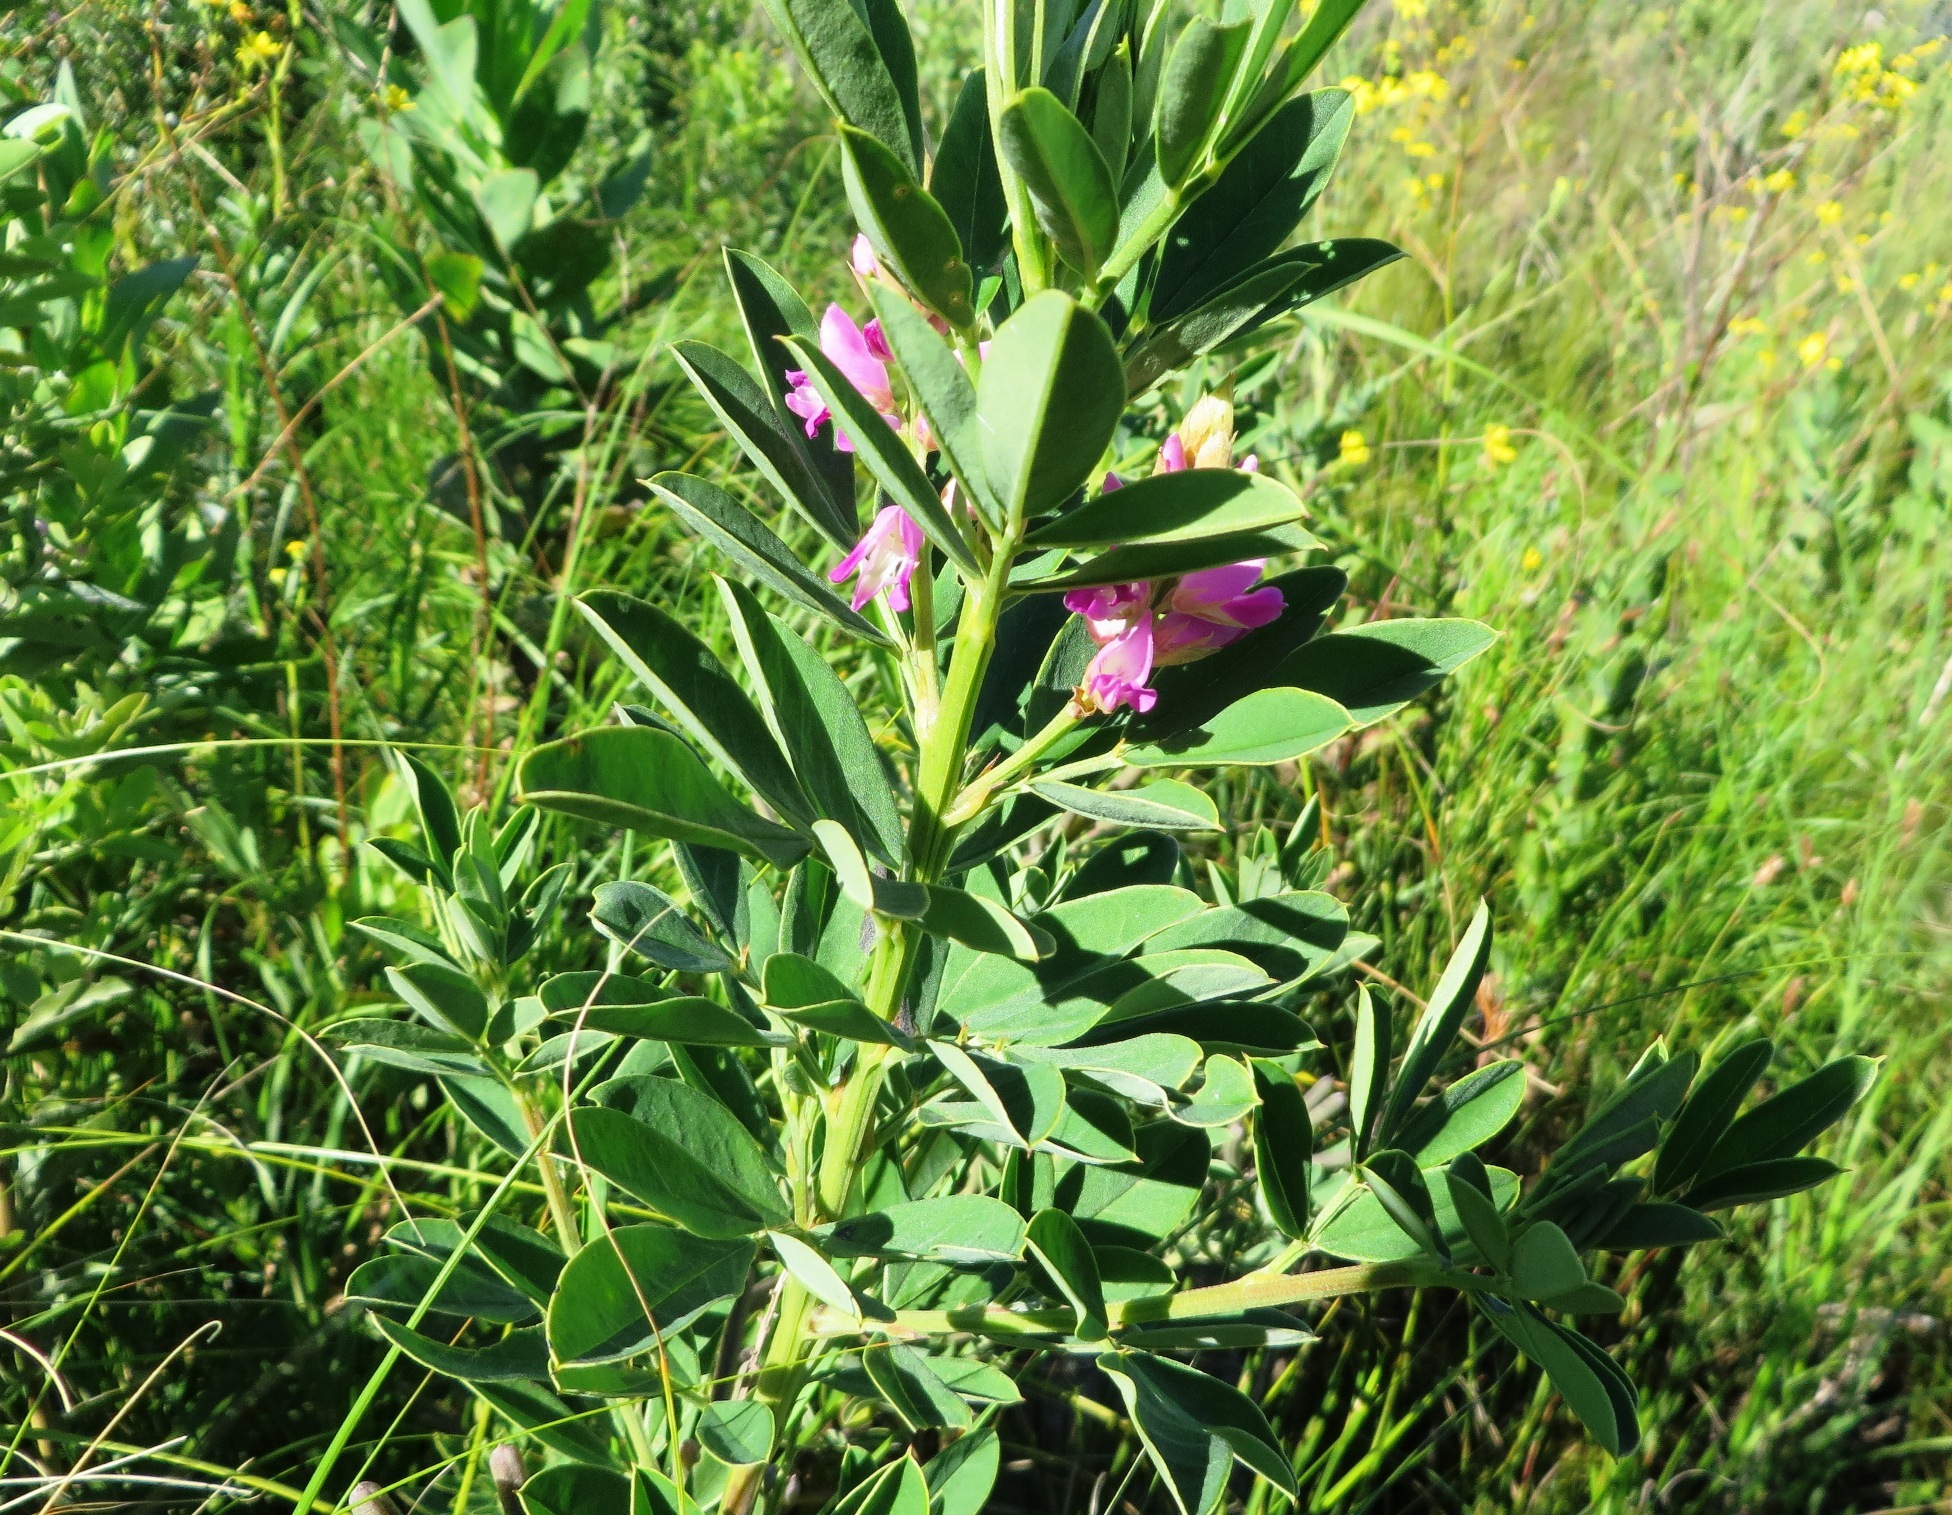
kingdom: Plantae
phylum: Tracheophyta
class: Magnoliopsida
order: Fabales
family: Fabaceae
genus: Indigofera
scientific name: Indigofera cytisoides
